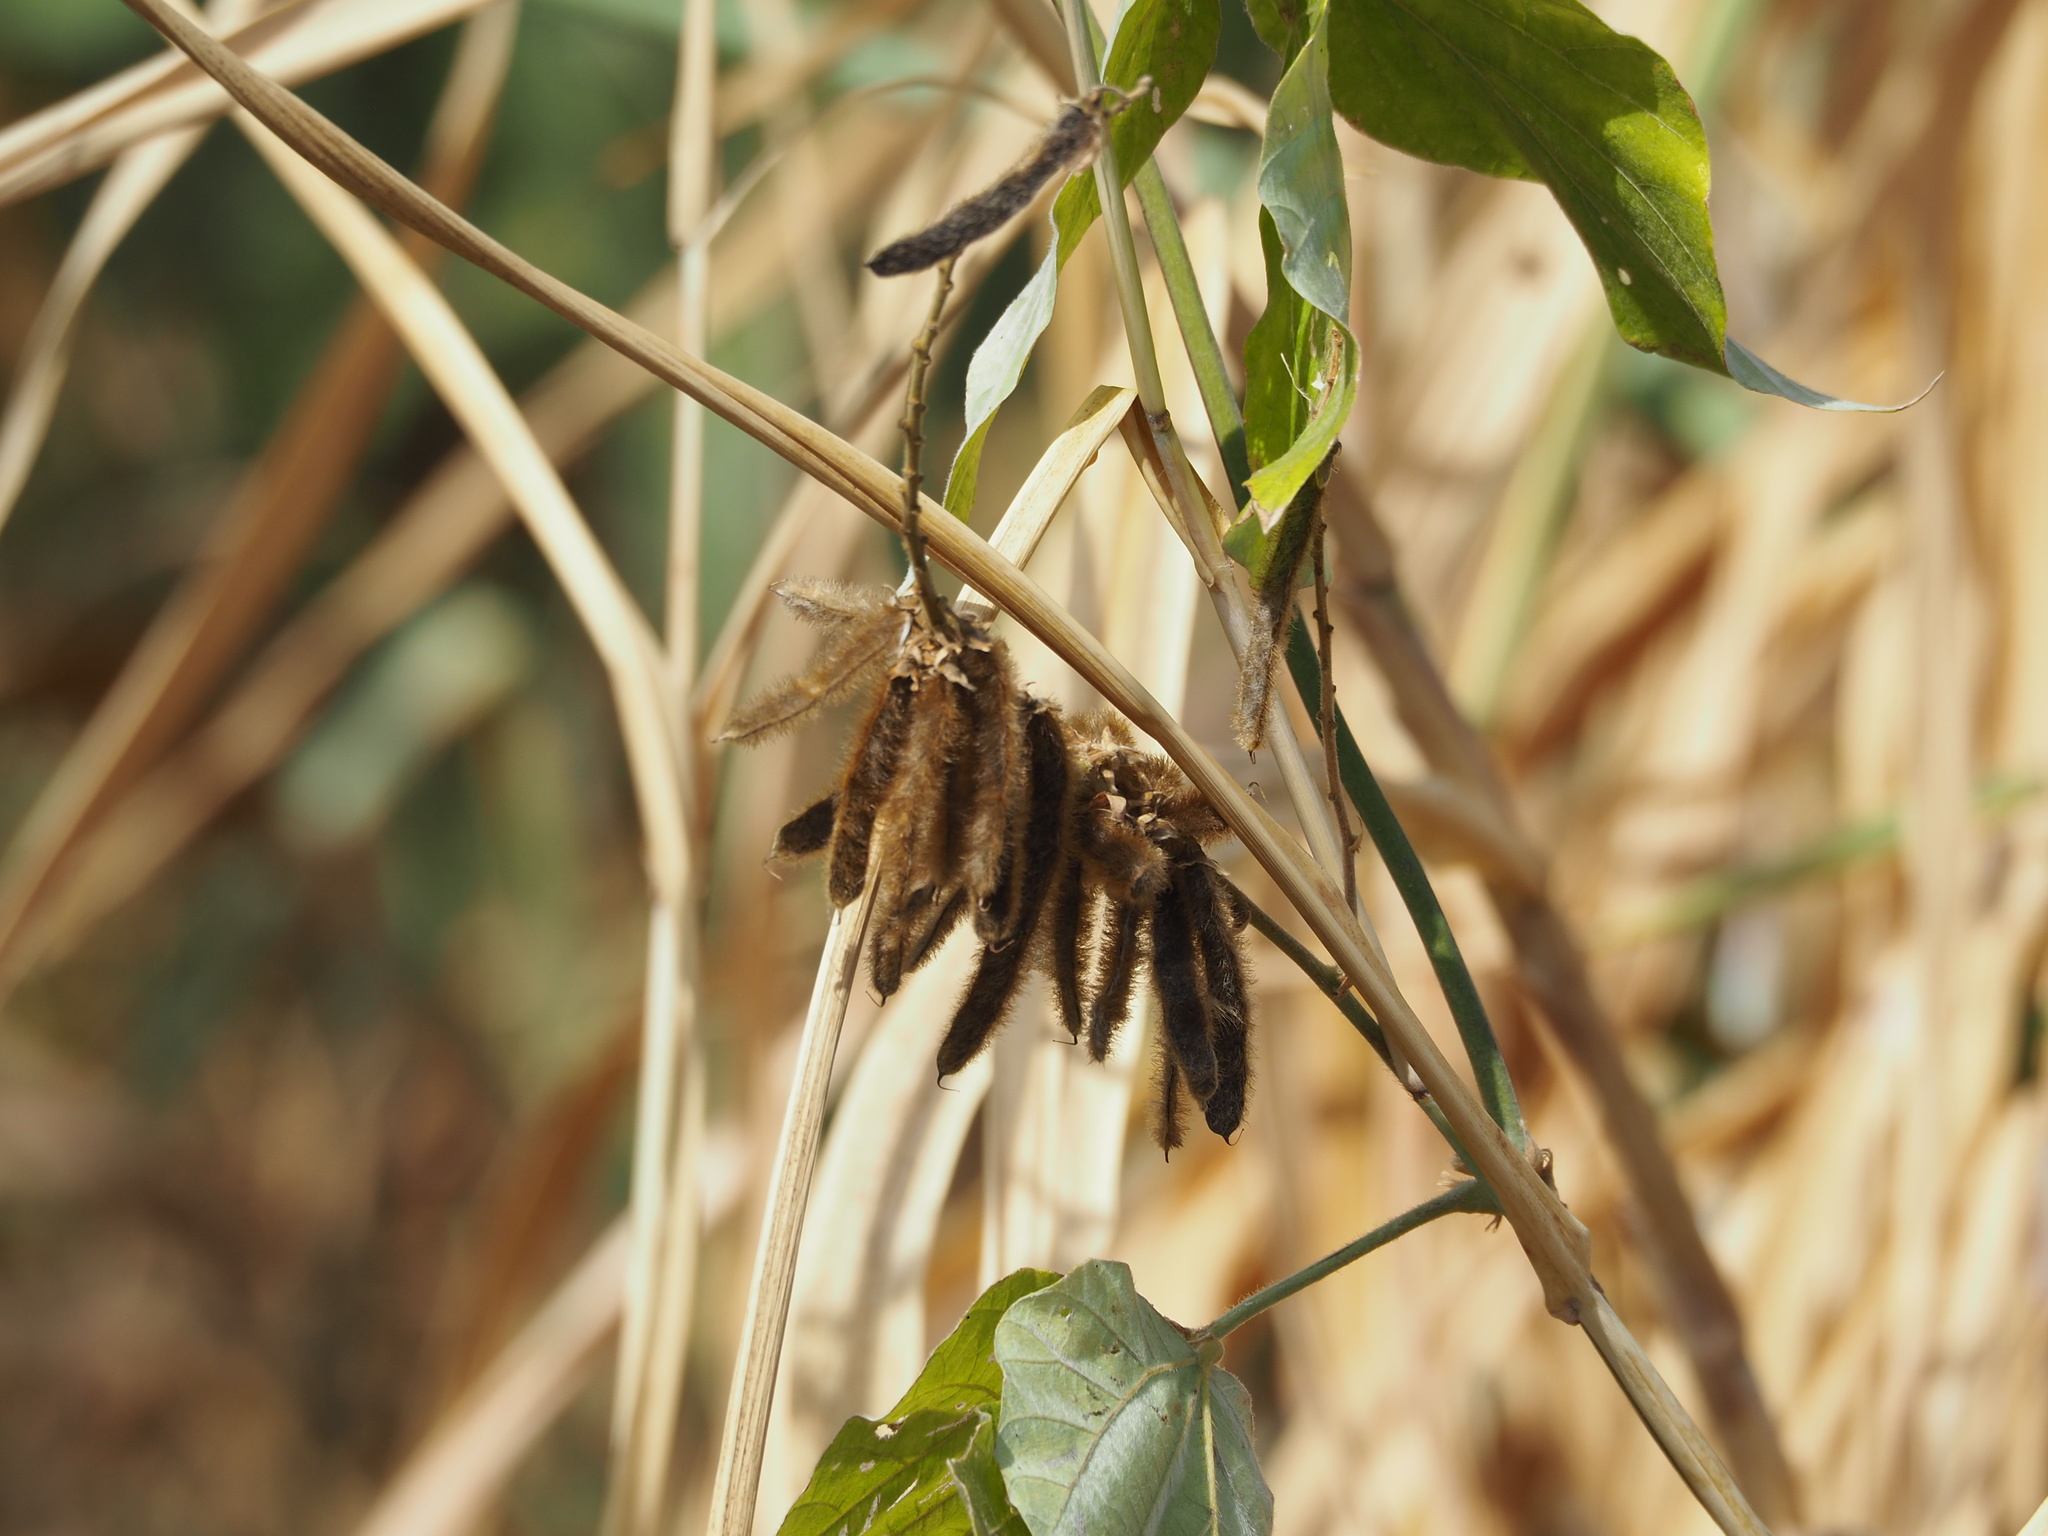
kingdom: Plantae
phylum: Tracheophyta
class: Magnoliopsida
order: Fabales
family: Fabaceae
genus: Pueraria
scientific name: Pueraria montana
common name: Kudzu
